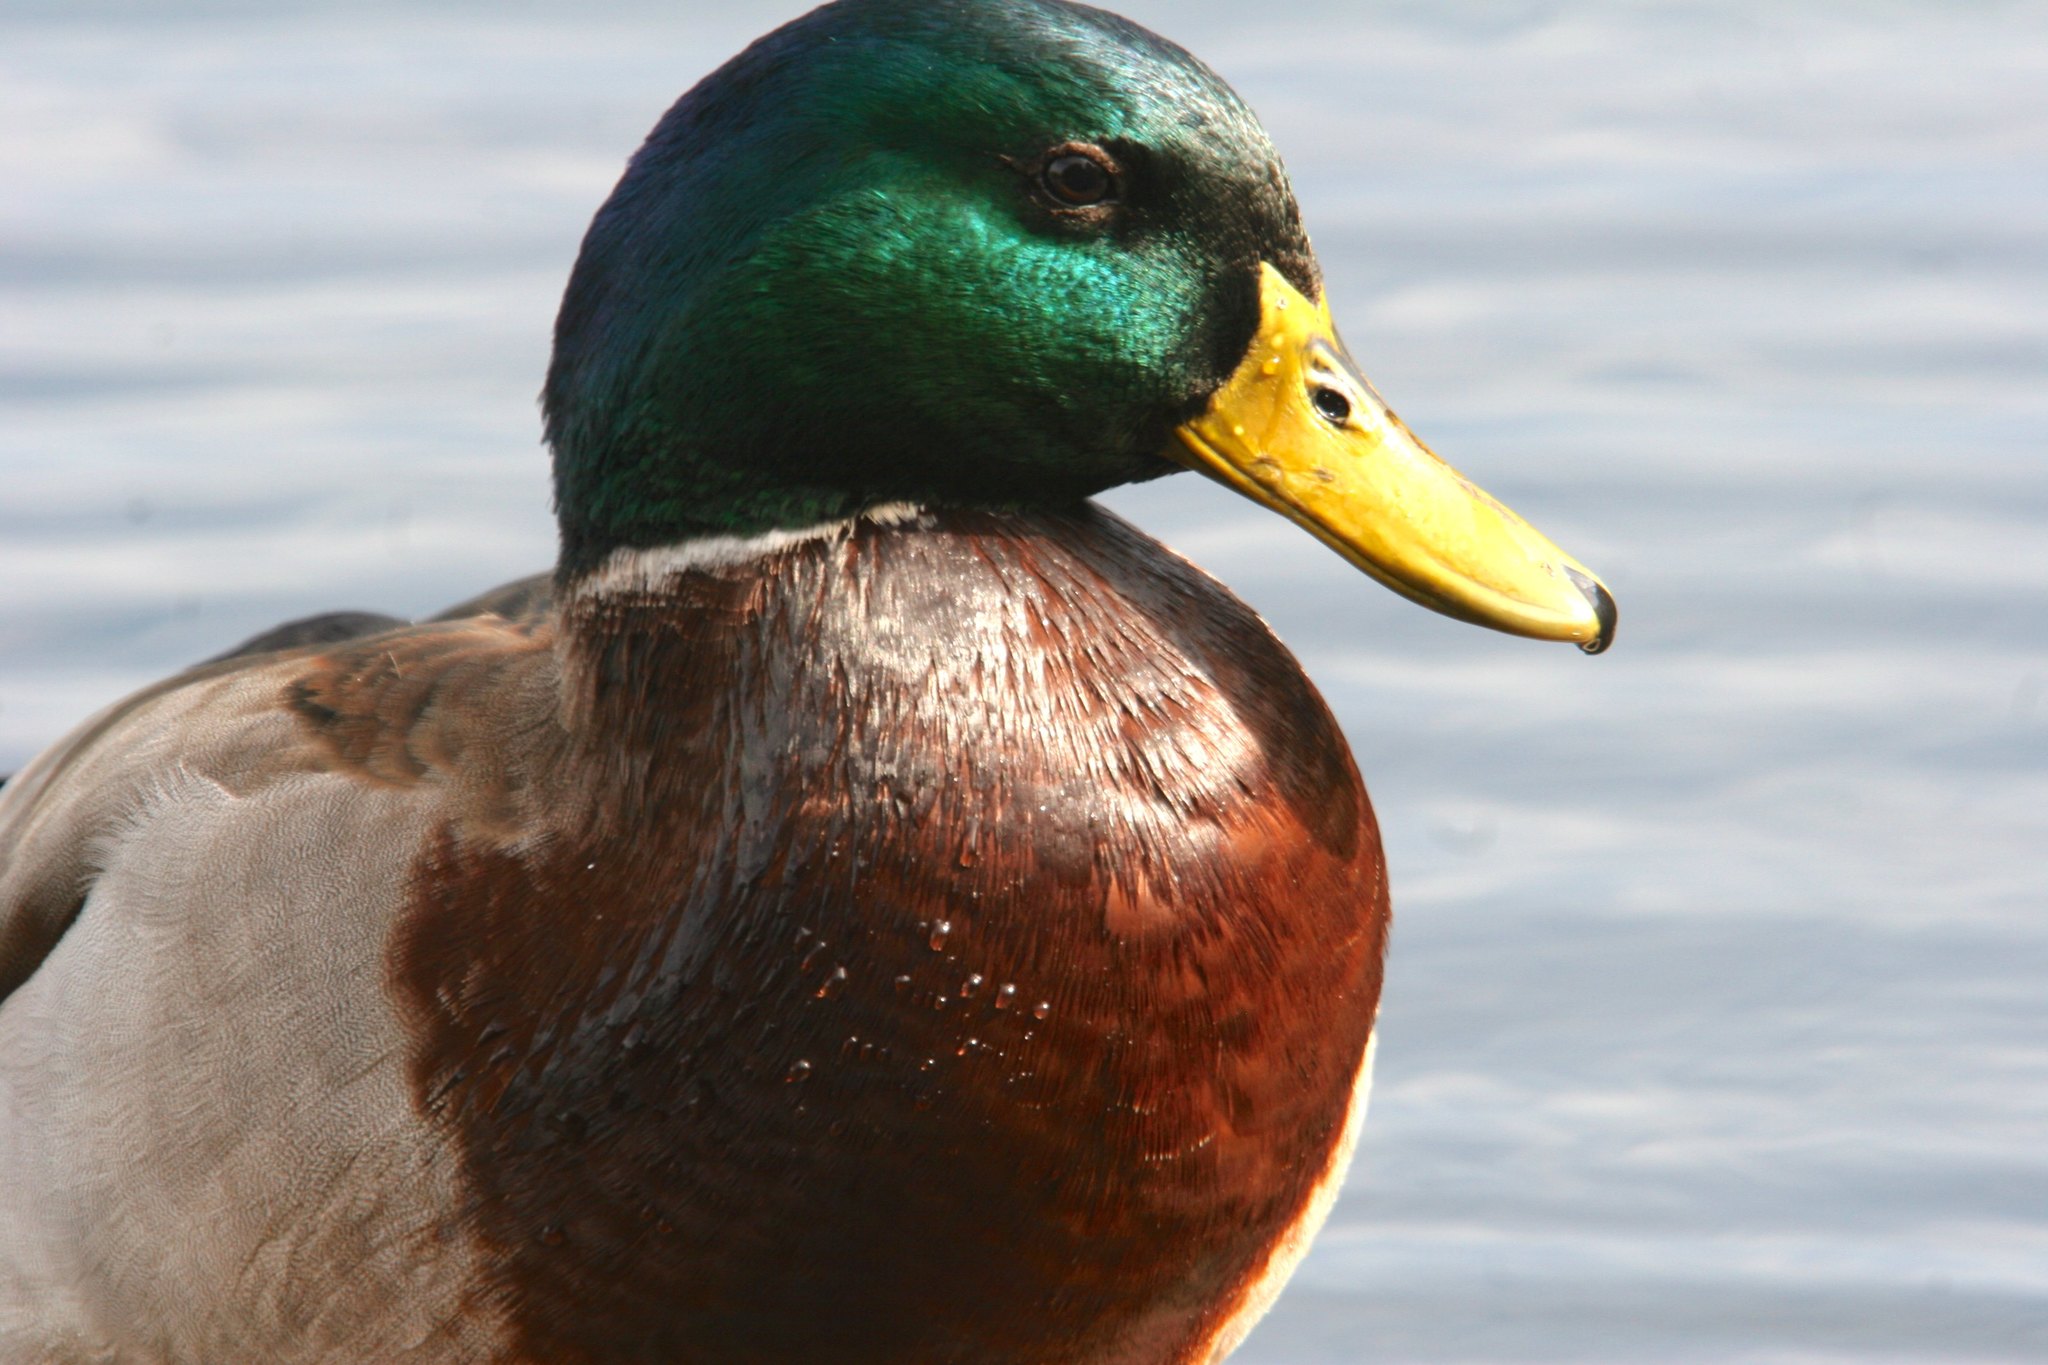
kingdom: Animalia
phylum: Chordata
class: Aves
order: Anseriformes
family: Anatidae
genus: Anas
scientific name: Anas platyrhynchos
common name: Mallard
